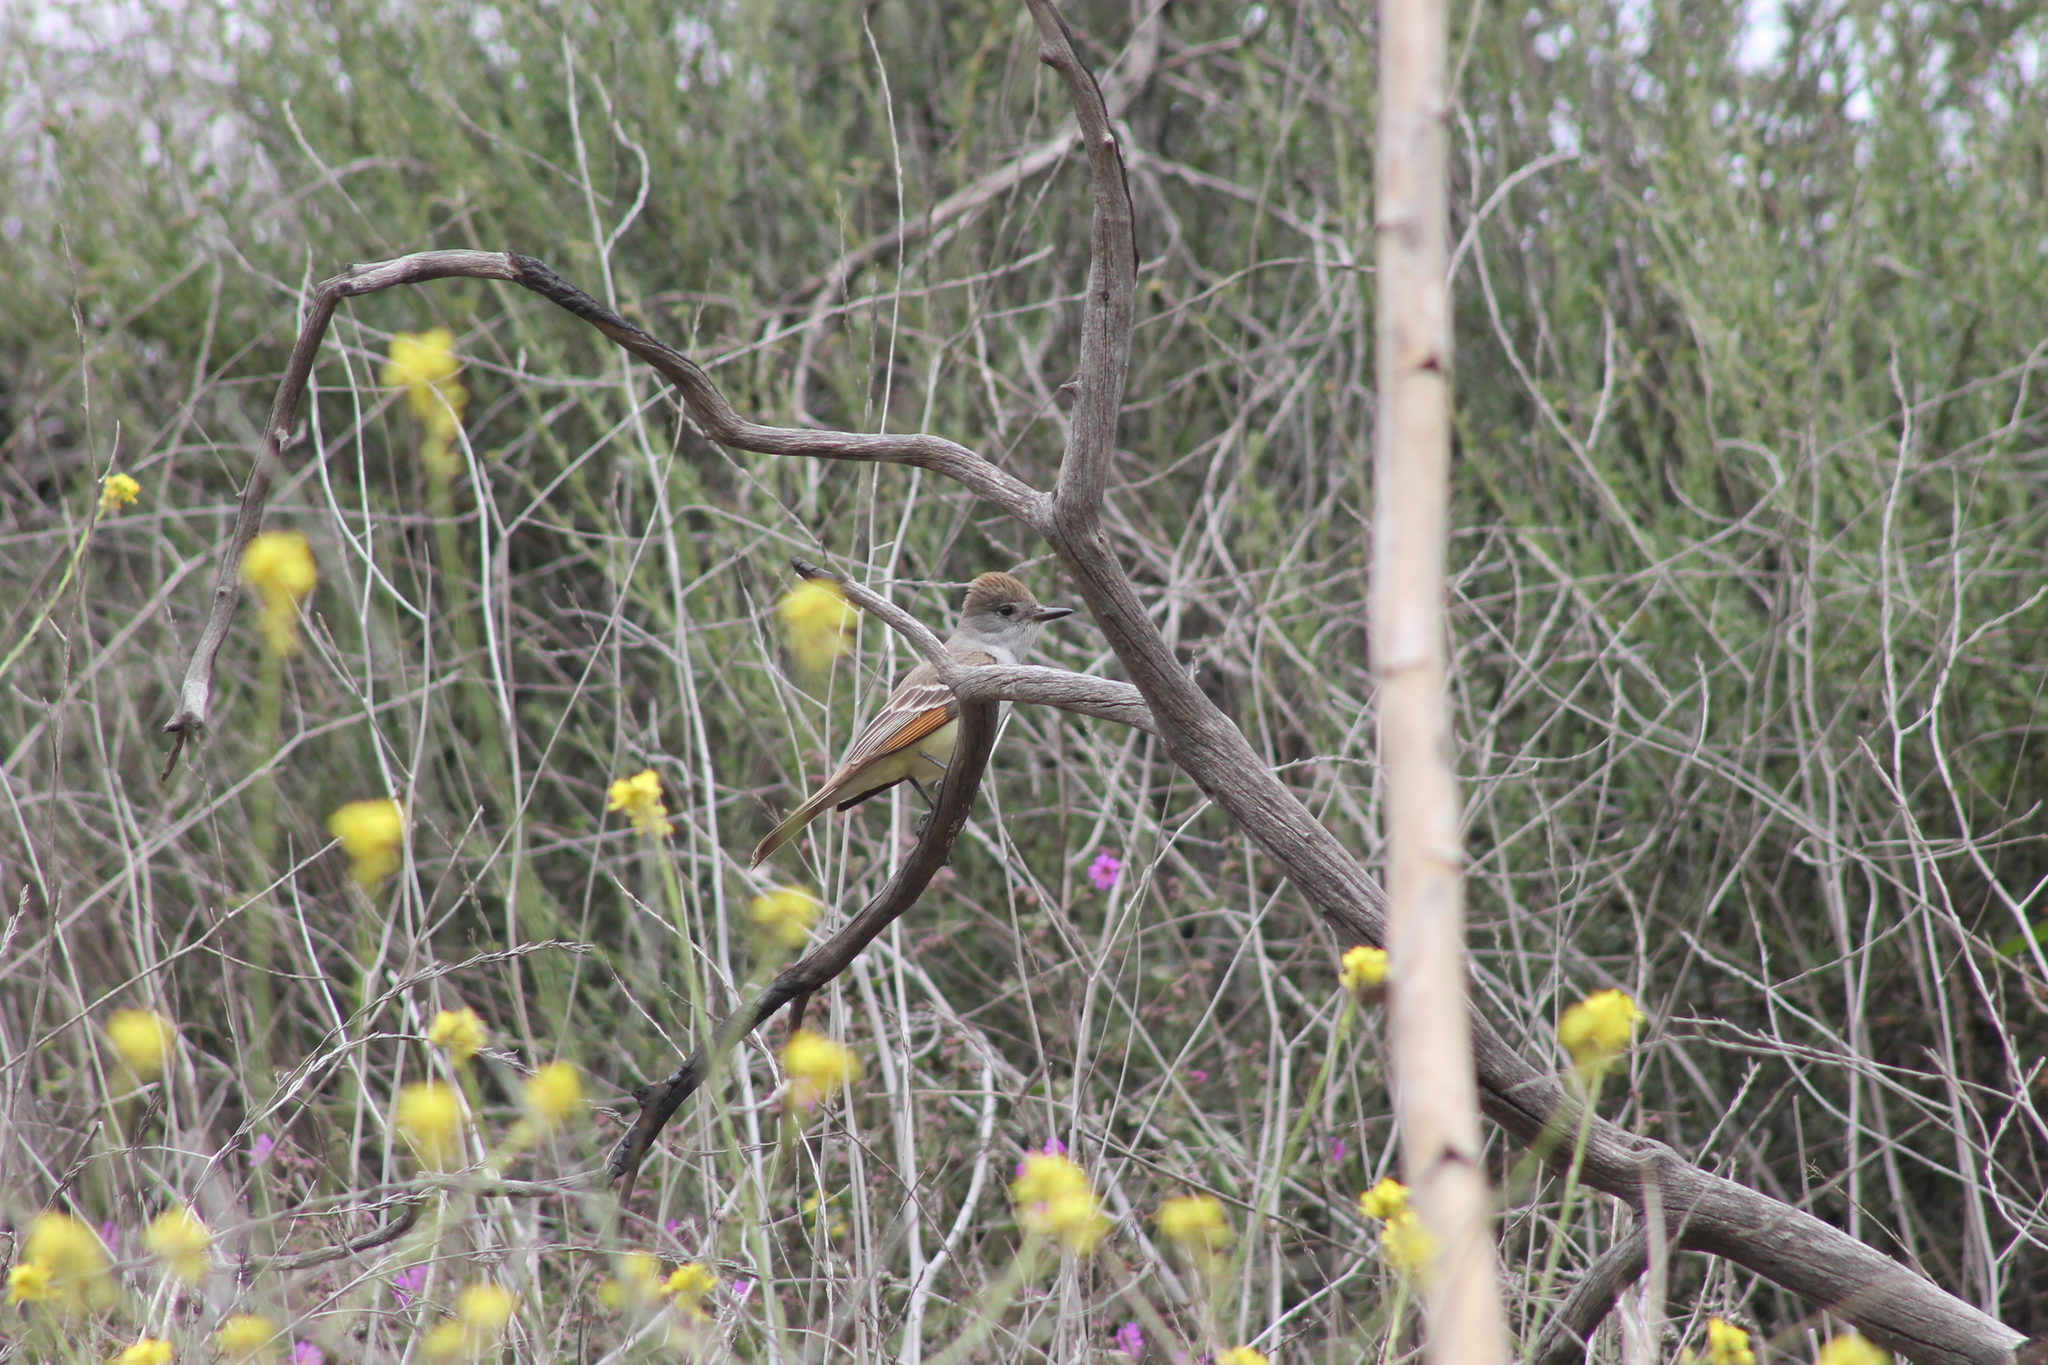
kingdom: Animalia
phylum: Chordata
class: Aves
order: Passeriformes
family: Tyrannidae
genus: Myiarchus
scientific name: Myiarchus cinerascens
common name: Ash-throated flycatcher
